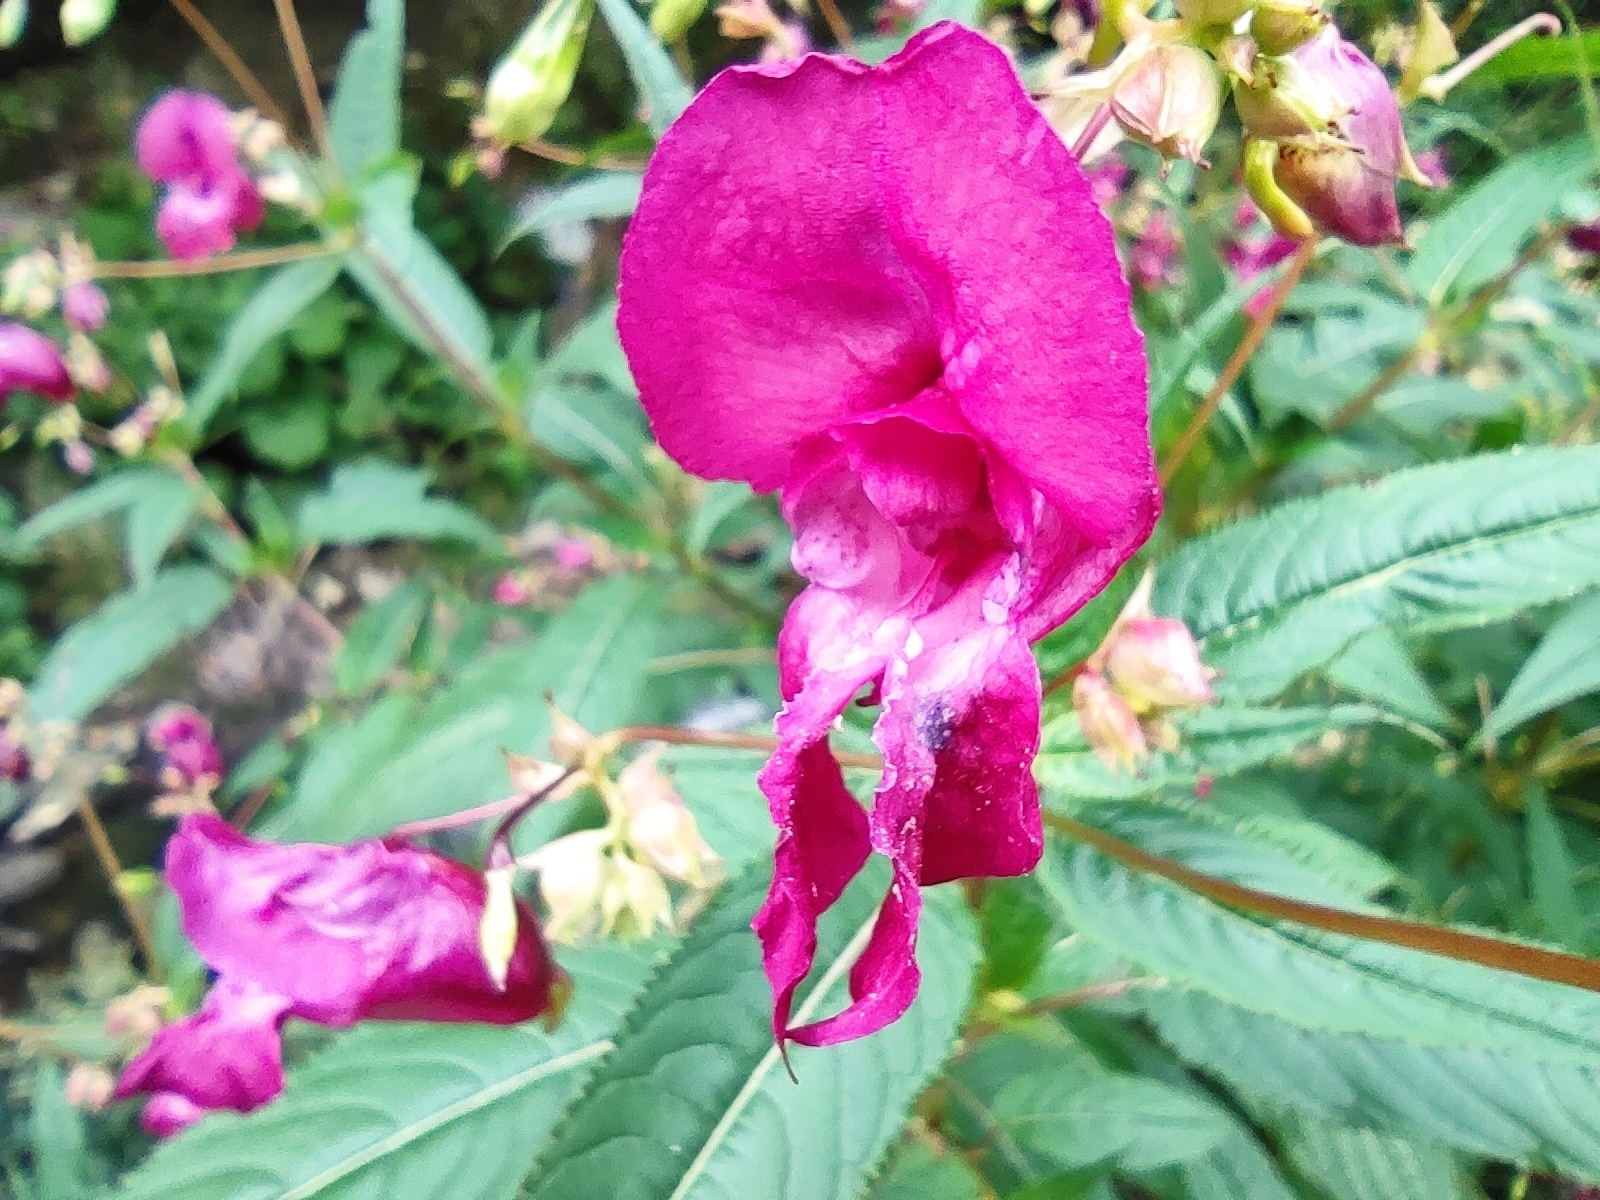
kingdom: Plantae
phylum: Tracheophyta
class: Magnoliopsida
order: Ericales
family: Balsaminaceae
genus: Impatiens
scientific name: Impatiens glandulifera
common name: Himalayan balsam
